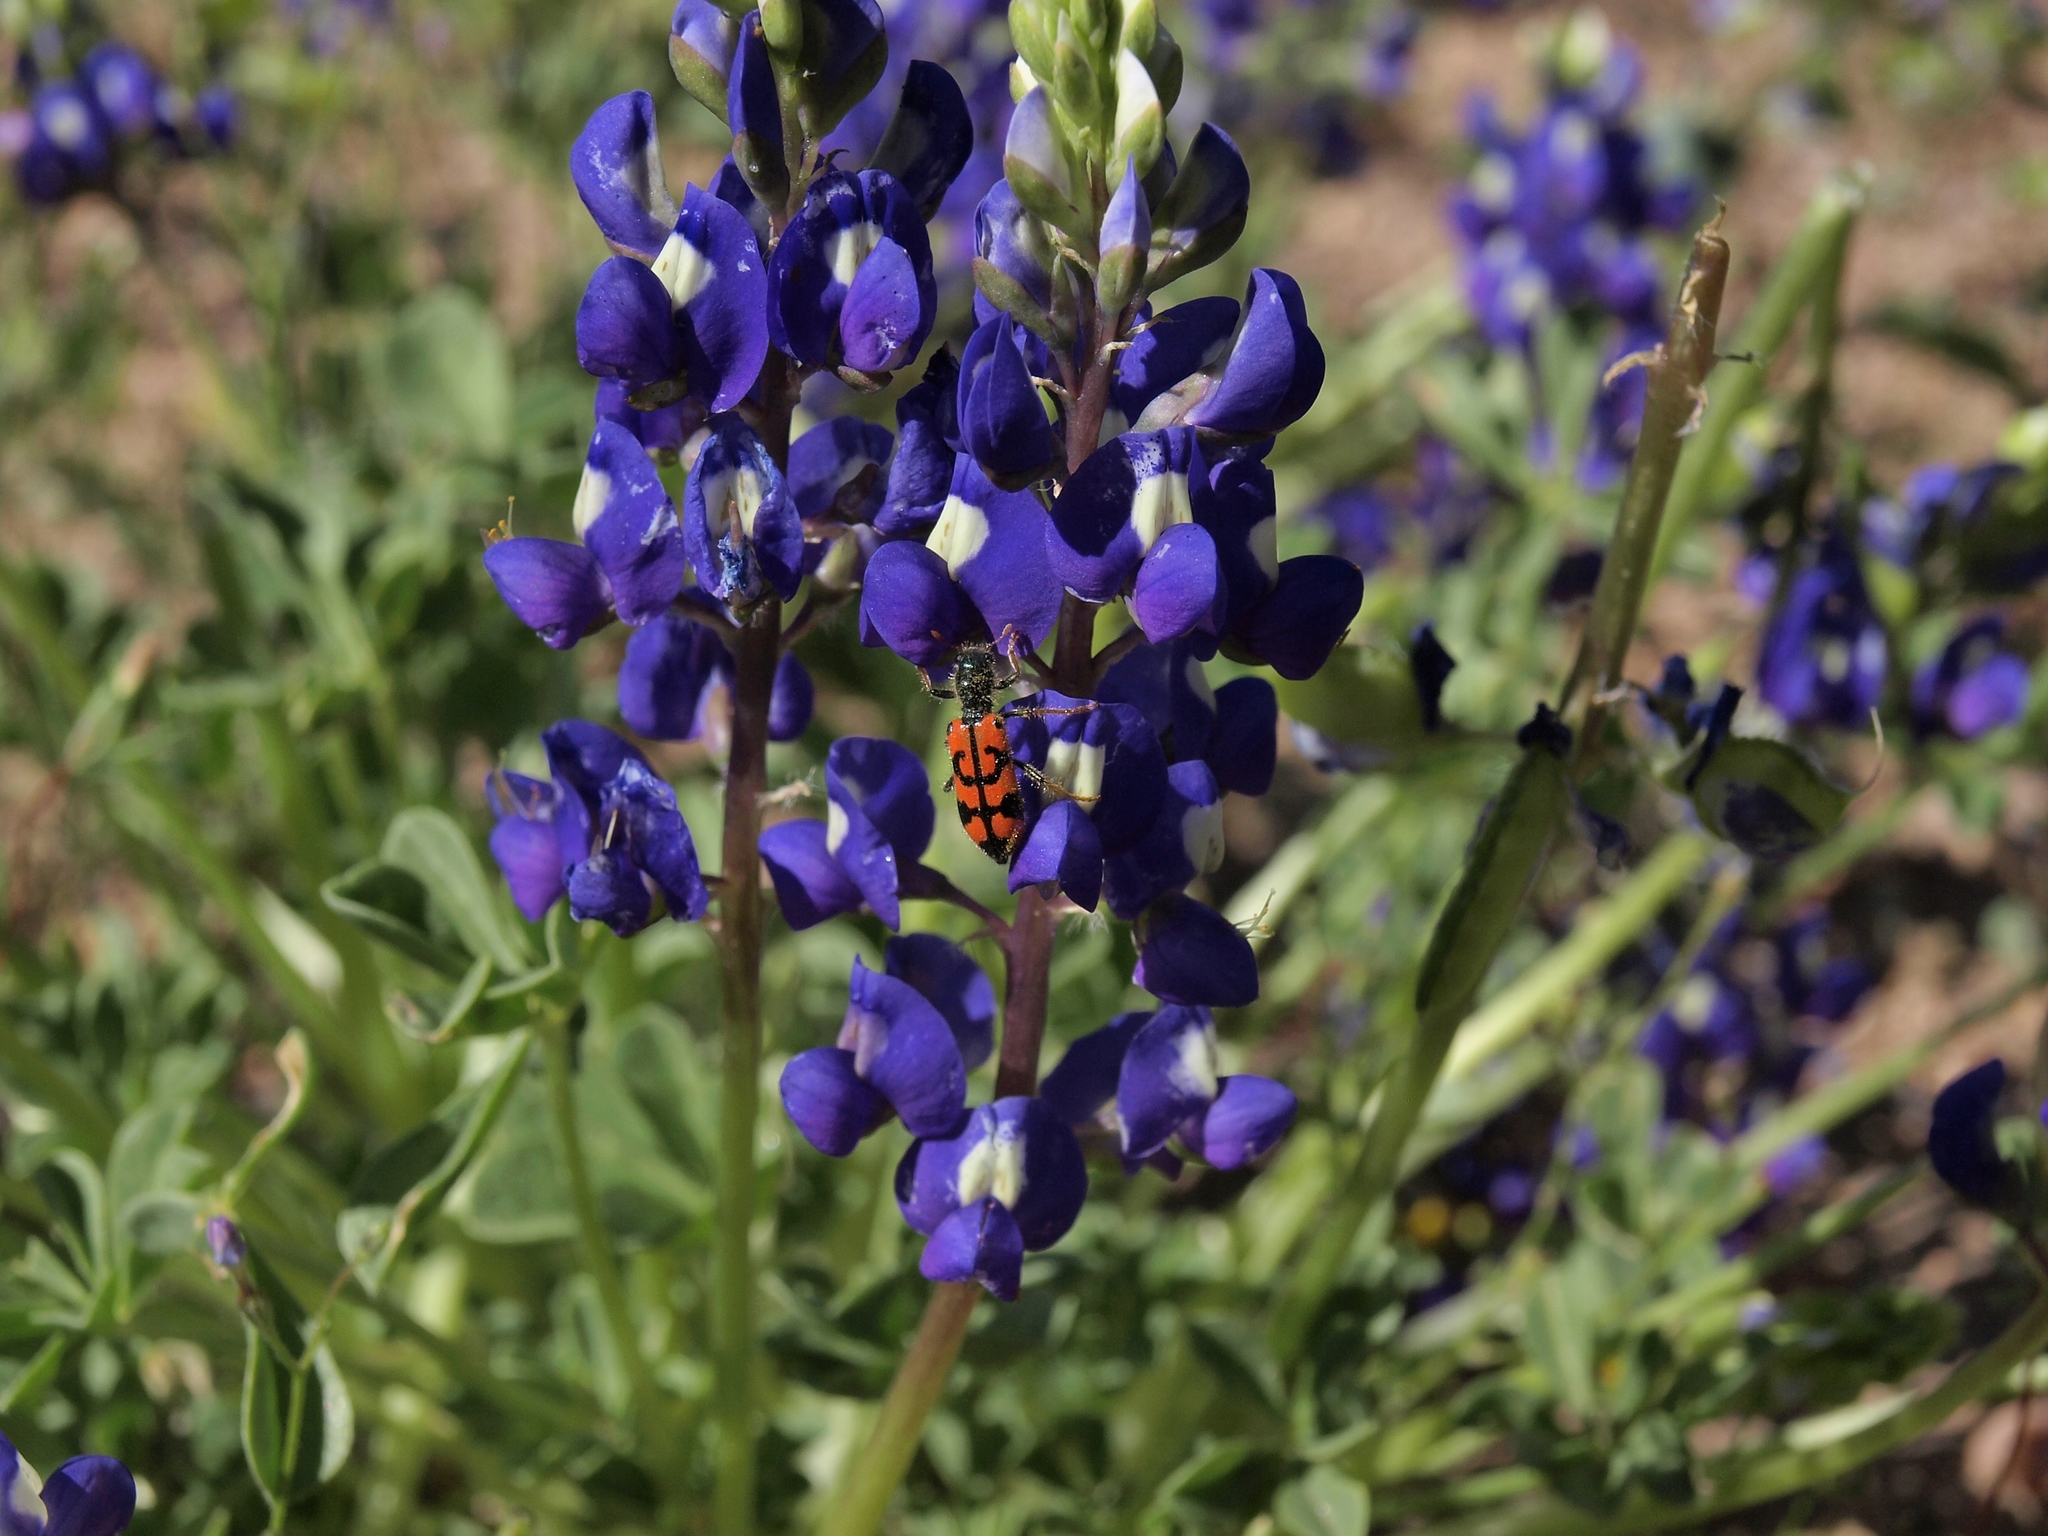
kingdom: Animalia
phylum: Arthropoda
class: Insecta
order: Coleoptera
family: Cleridae
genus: Trichodes
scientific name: Trichodes ornatus
